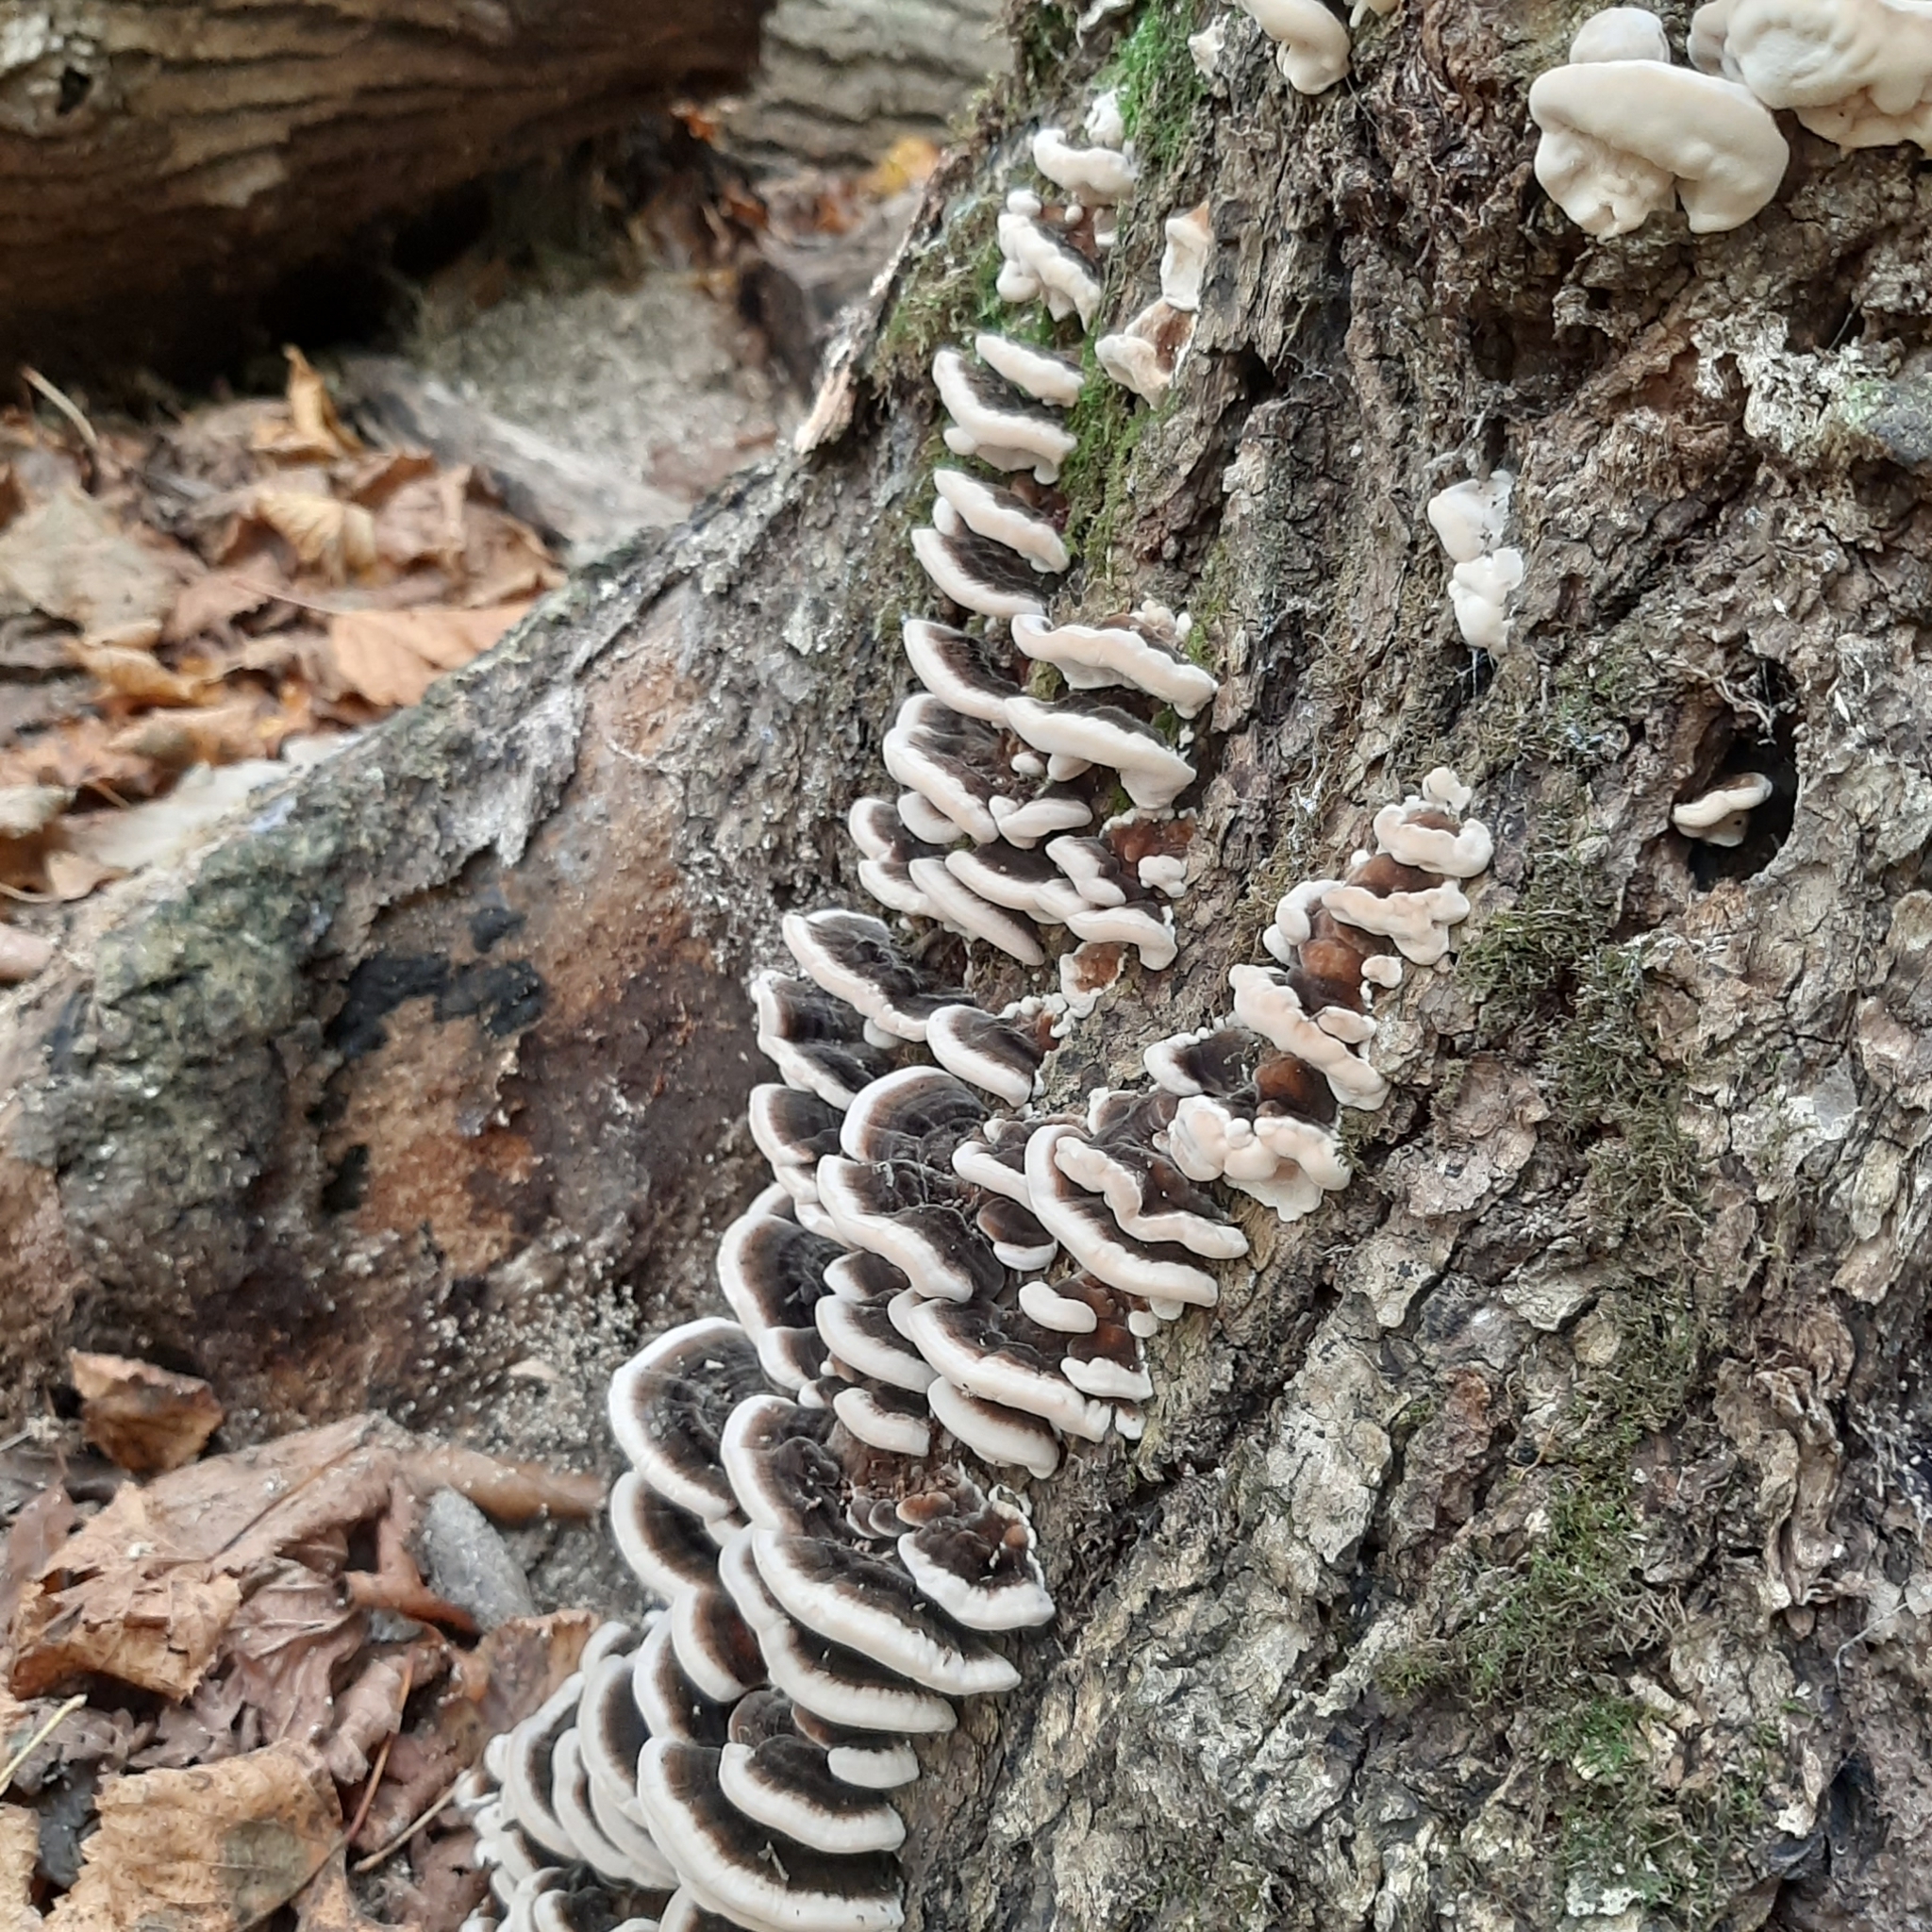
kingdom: Fungi
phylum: Basidiomycota
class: Agaricomycetes
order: Polyporales
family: Polyporaceae
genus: Trametes
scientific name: Trametes versicolor
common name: Turkeytail
